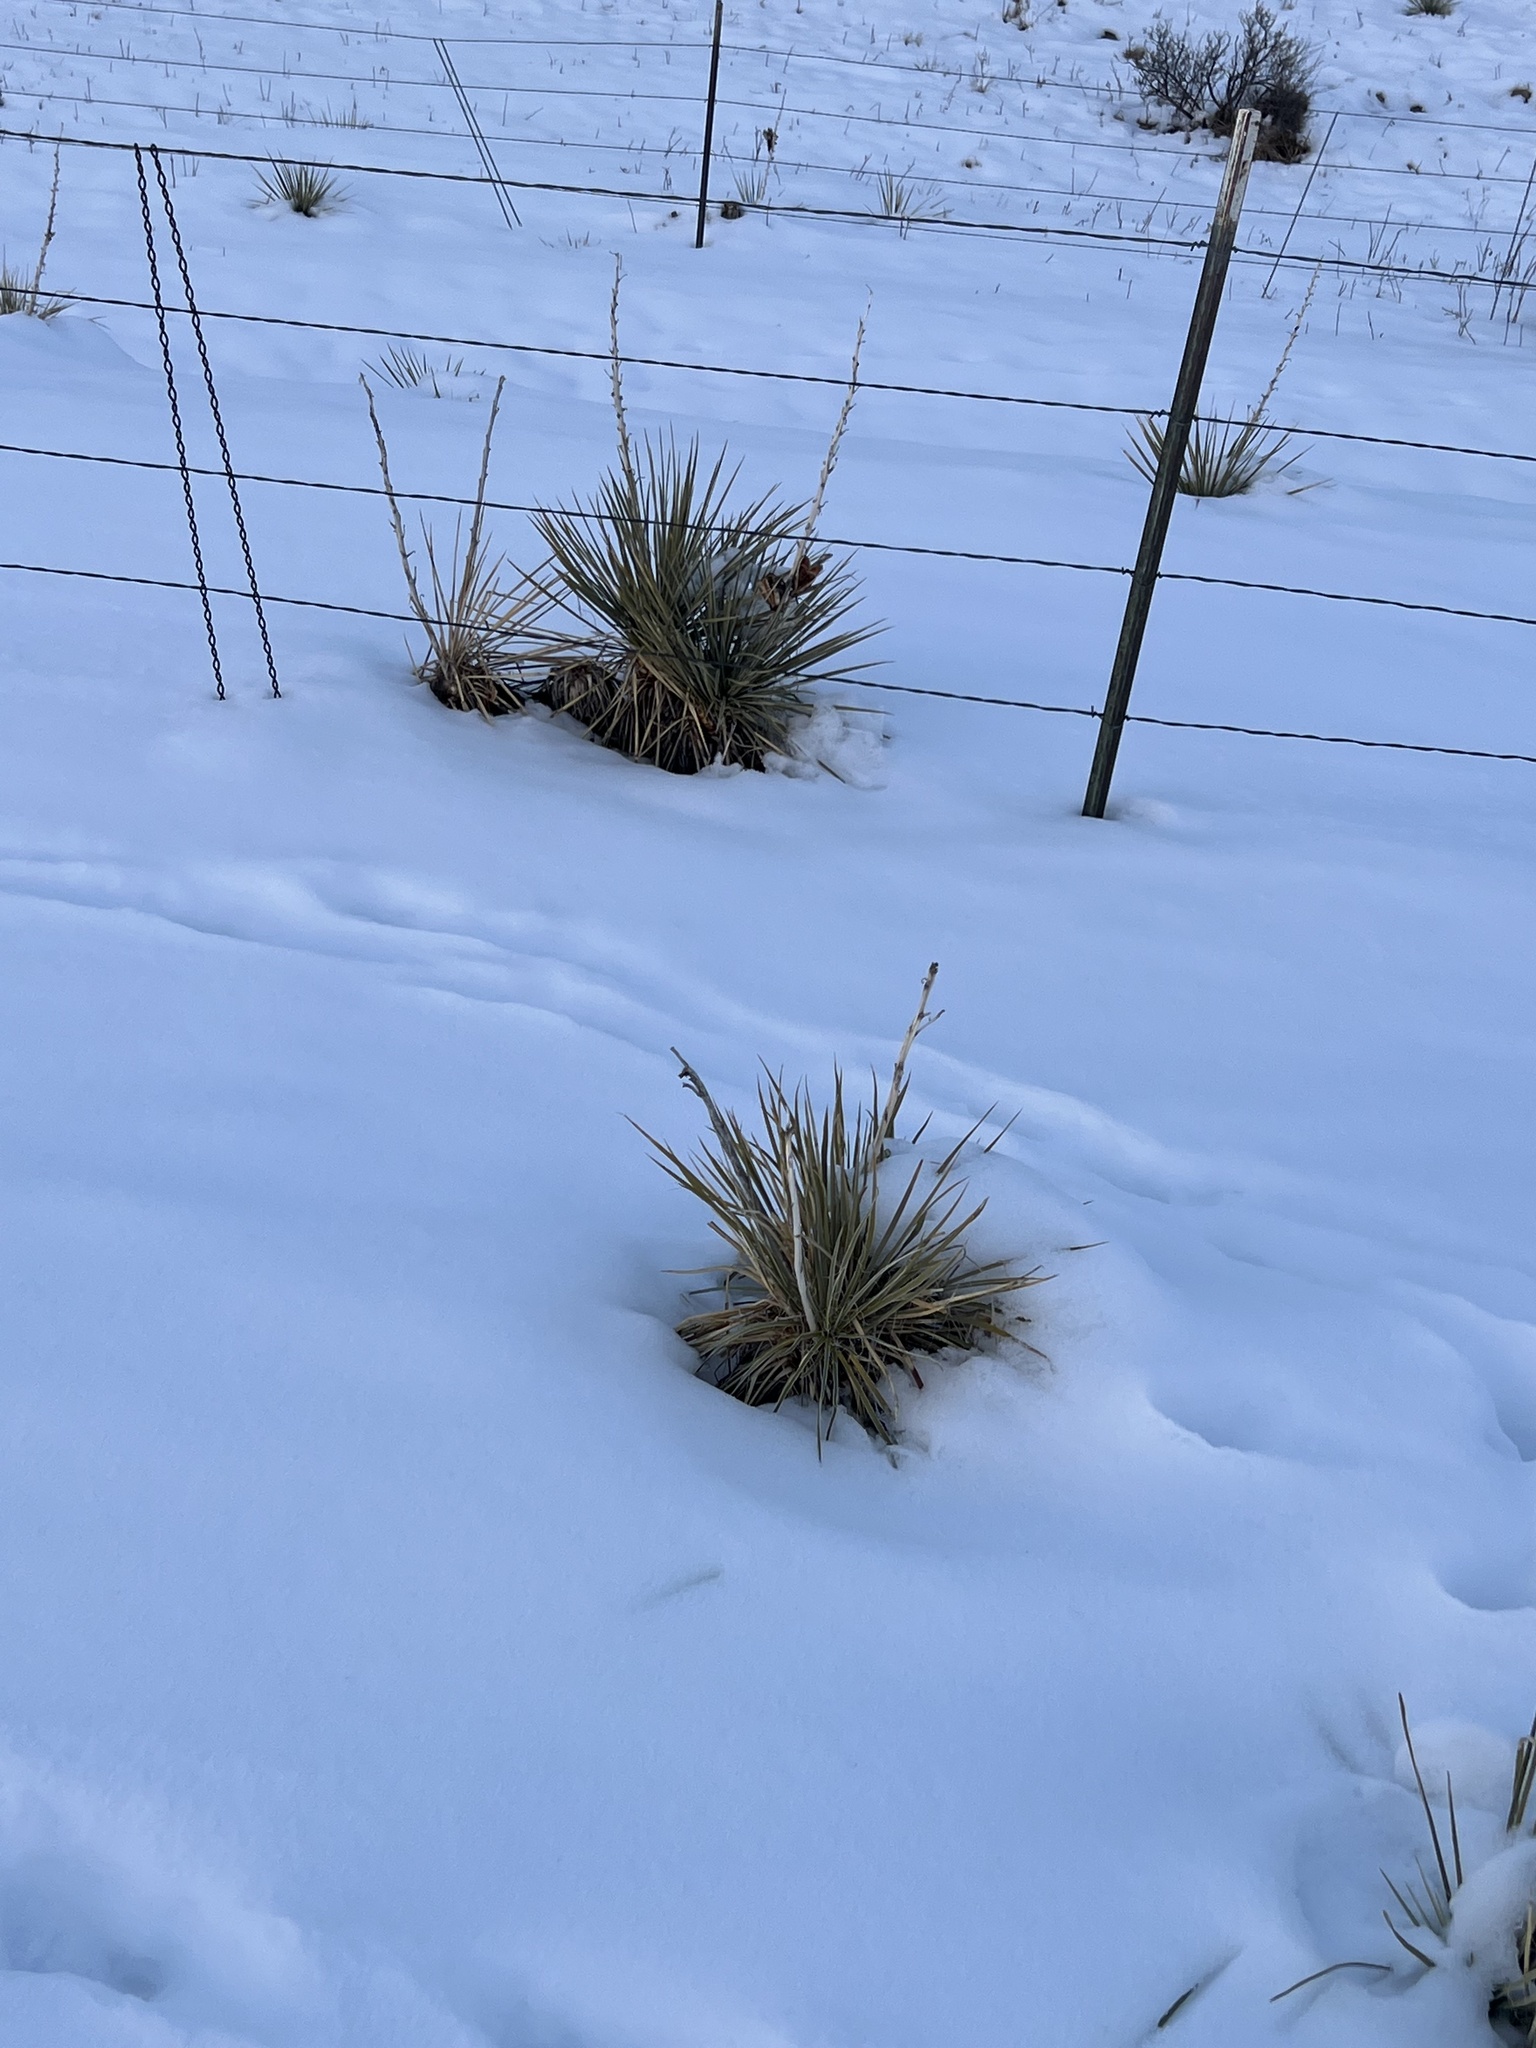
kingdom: Plantae
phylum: Tracheophyta
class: Liliopsida
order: Asparagales
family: Asparagaceae
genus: Yucca
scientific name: Yucca glauca
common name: Great plains yucca
